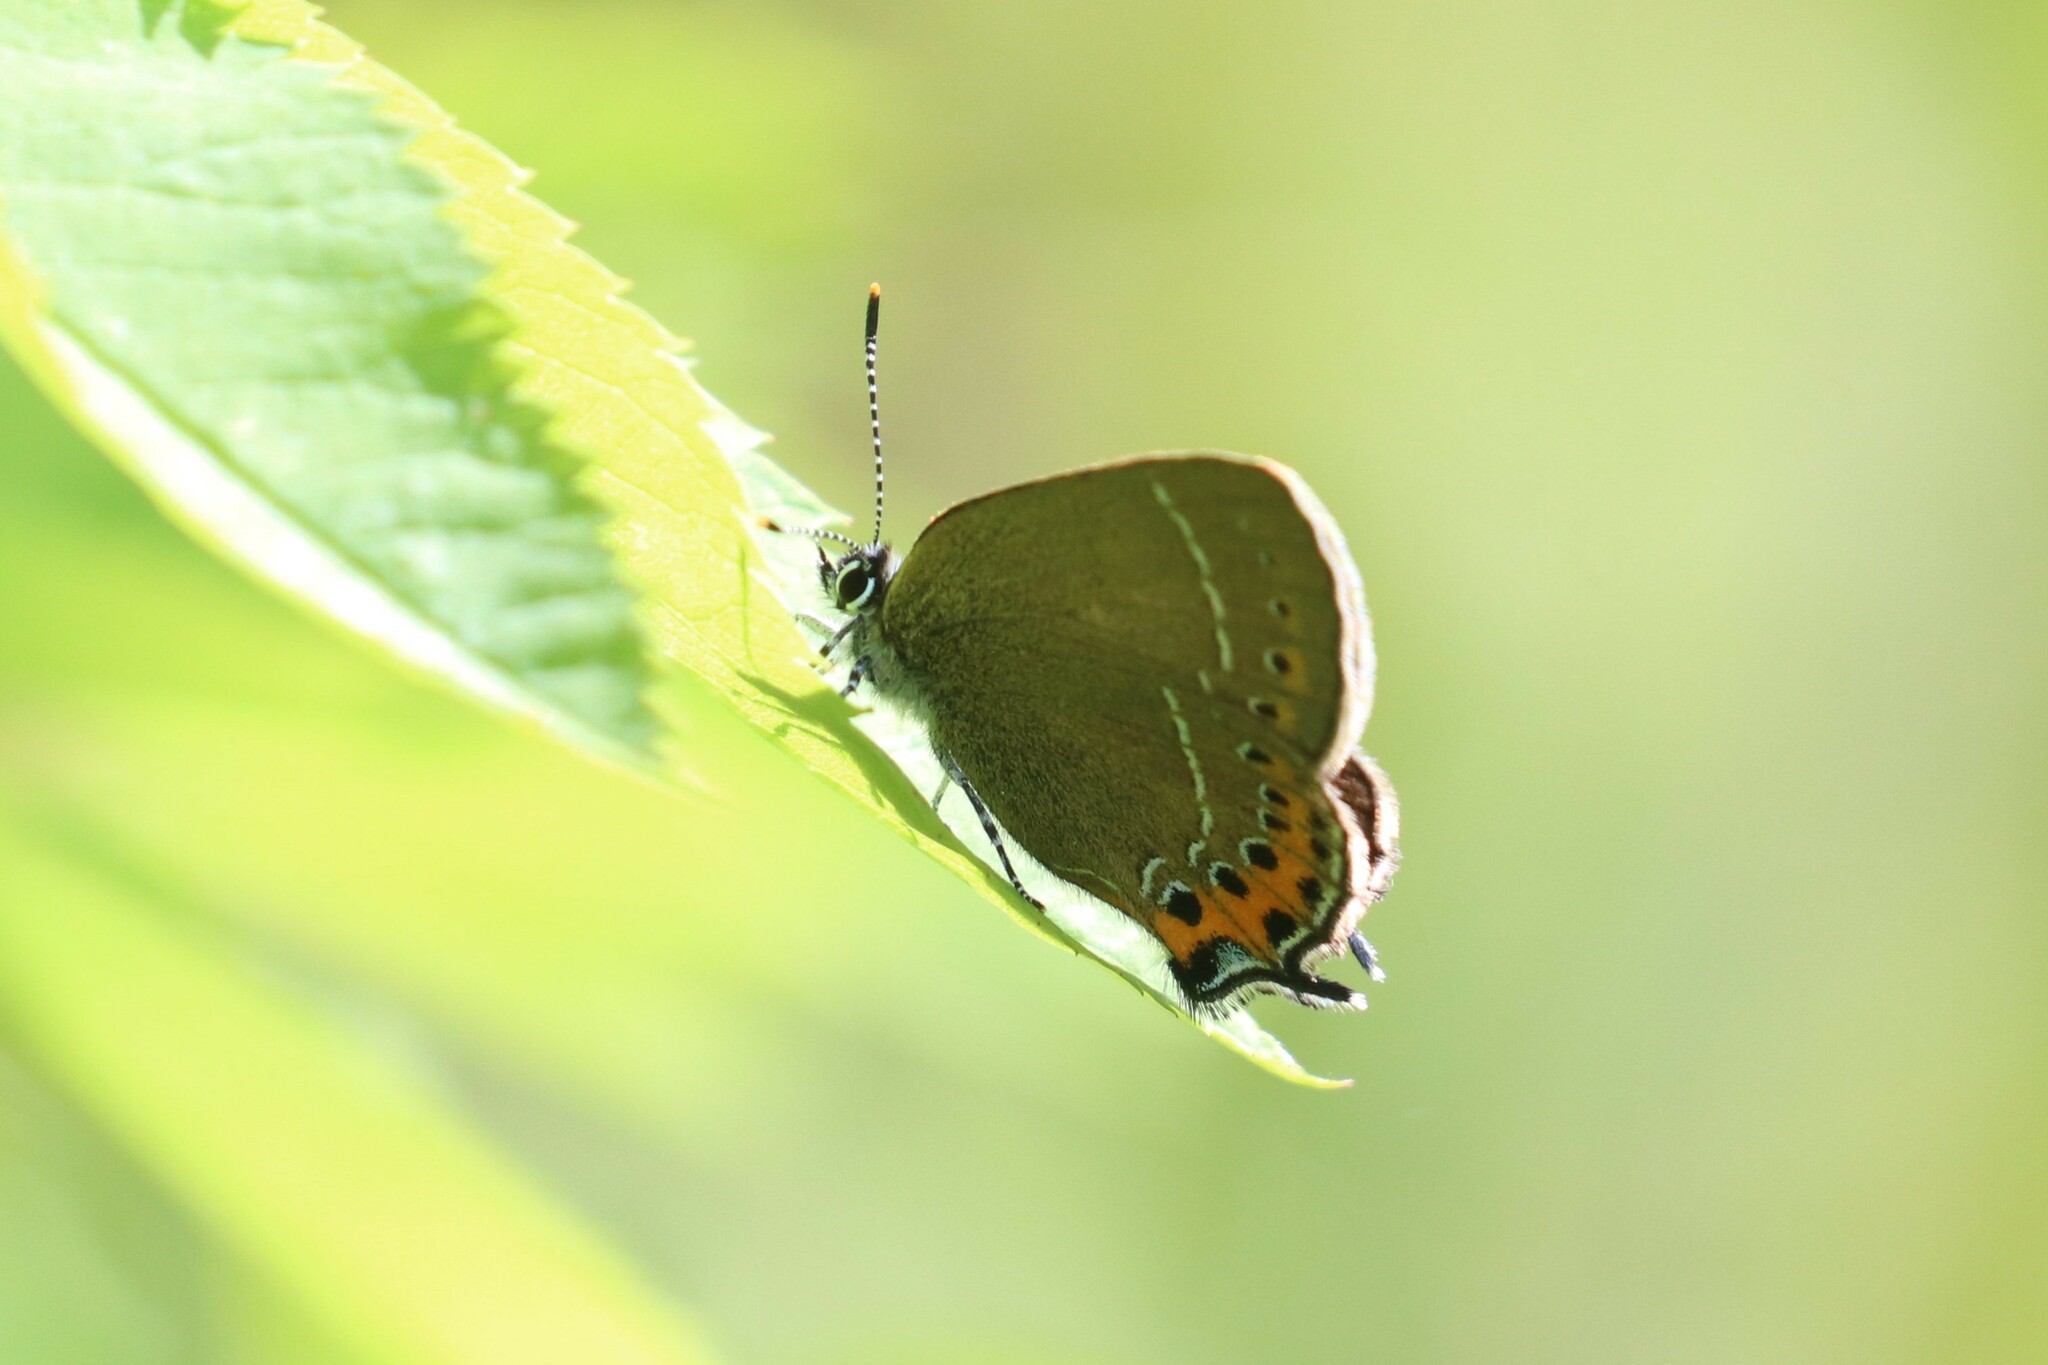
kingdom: Animalia
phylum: Arthropoda
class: Insecta
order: Lepidoptera
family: Lycaenidae
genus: Fixsenia
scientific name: Fixsenia pruni
